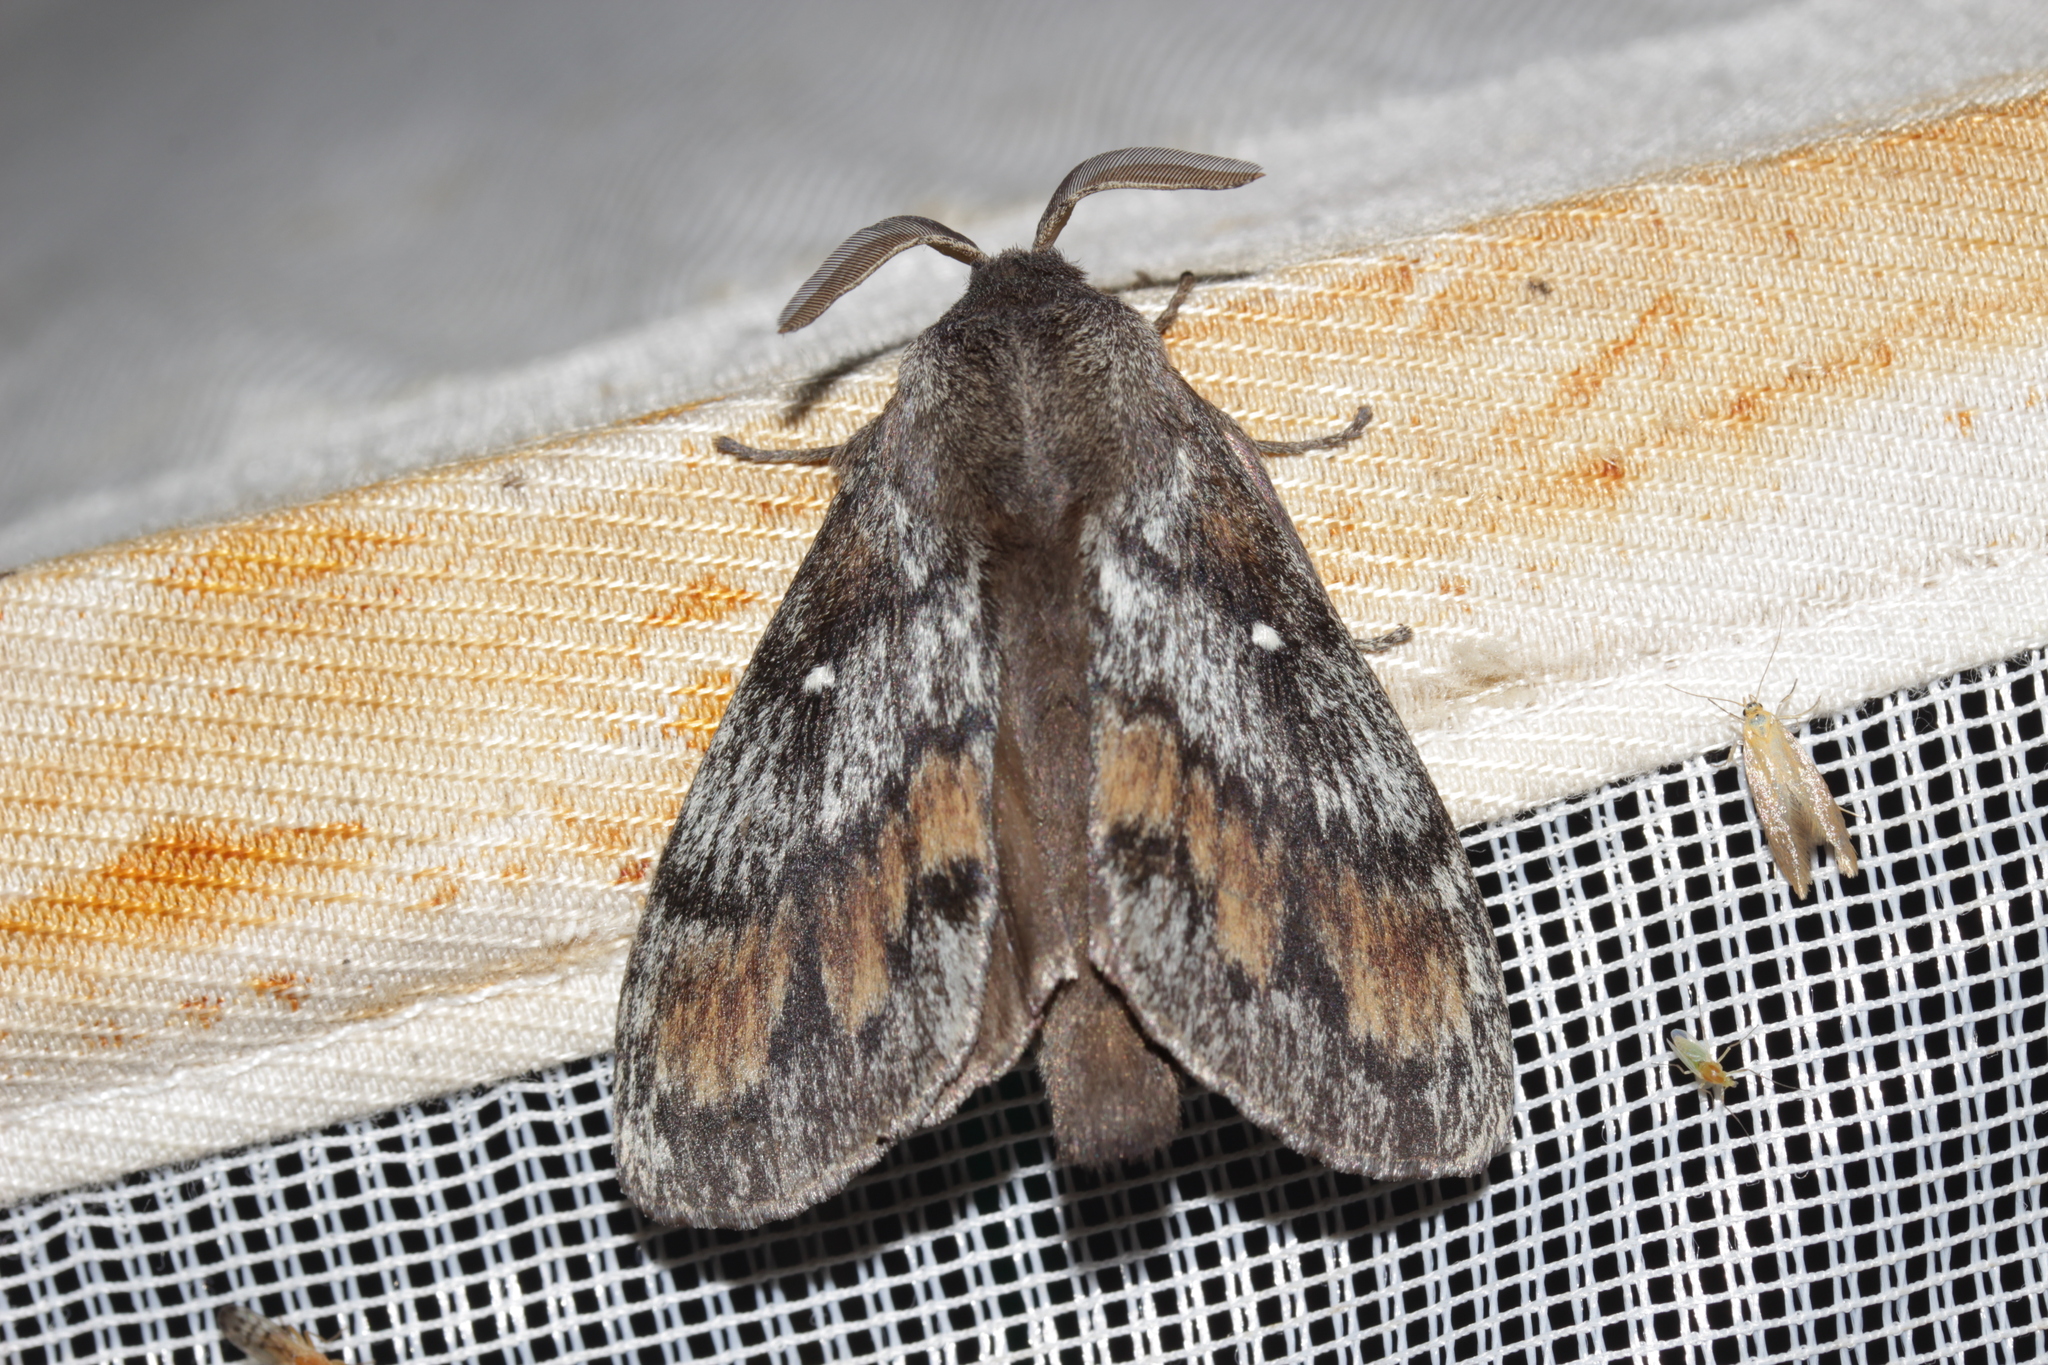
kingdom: Animalia
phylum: Arthropoda
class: Insecta
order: Lepidoptera
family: Lasiocampidae
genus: Dendrolimus
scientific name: Dendrolimus pini
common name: Pine-tree lappet
